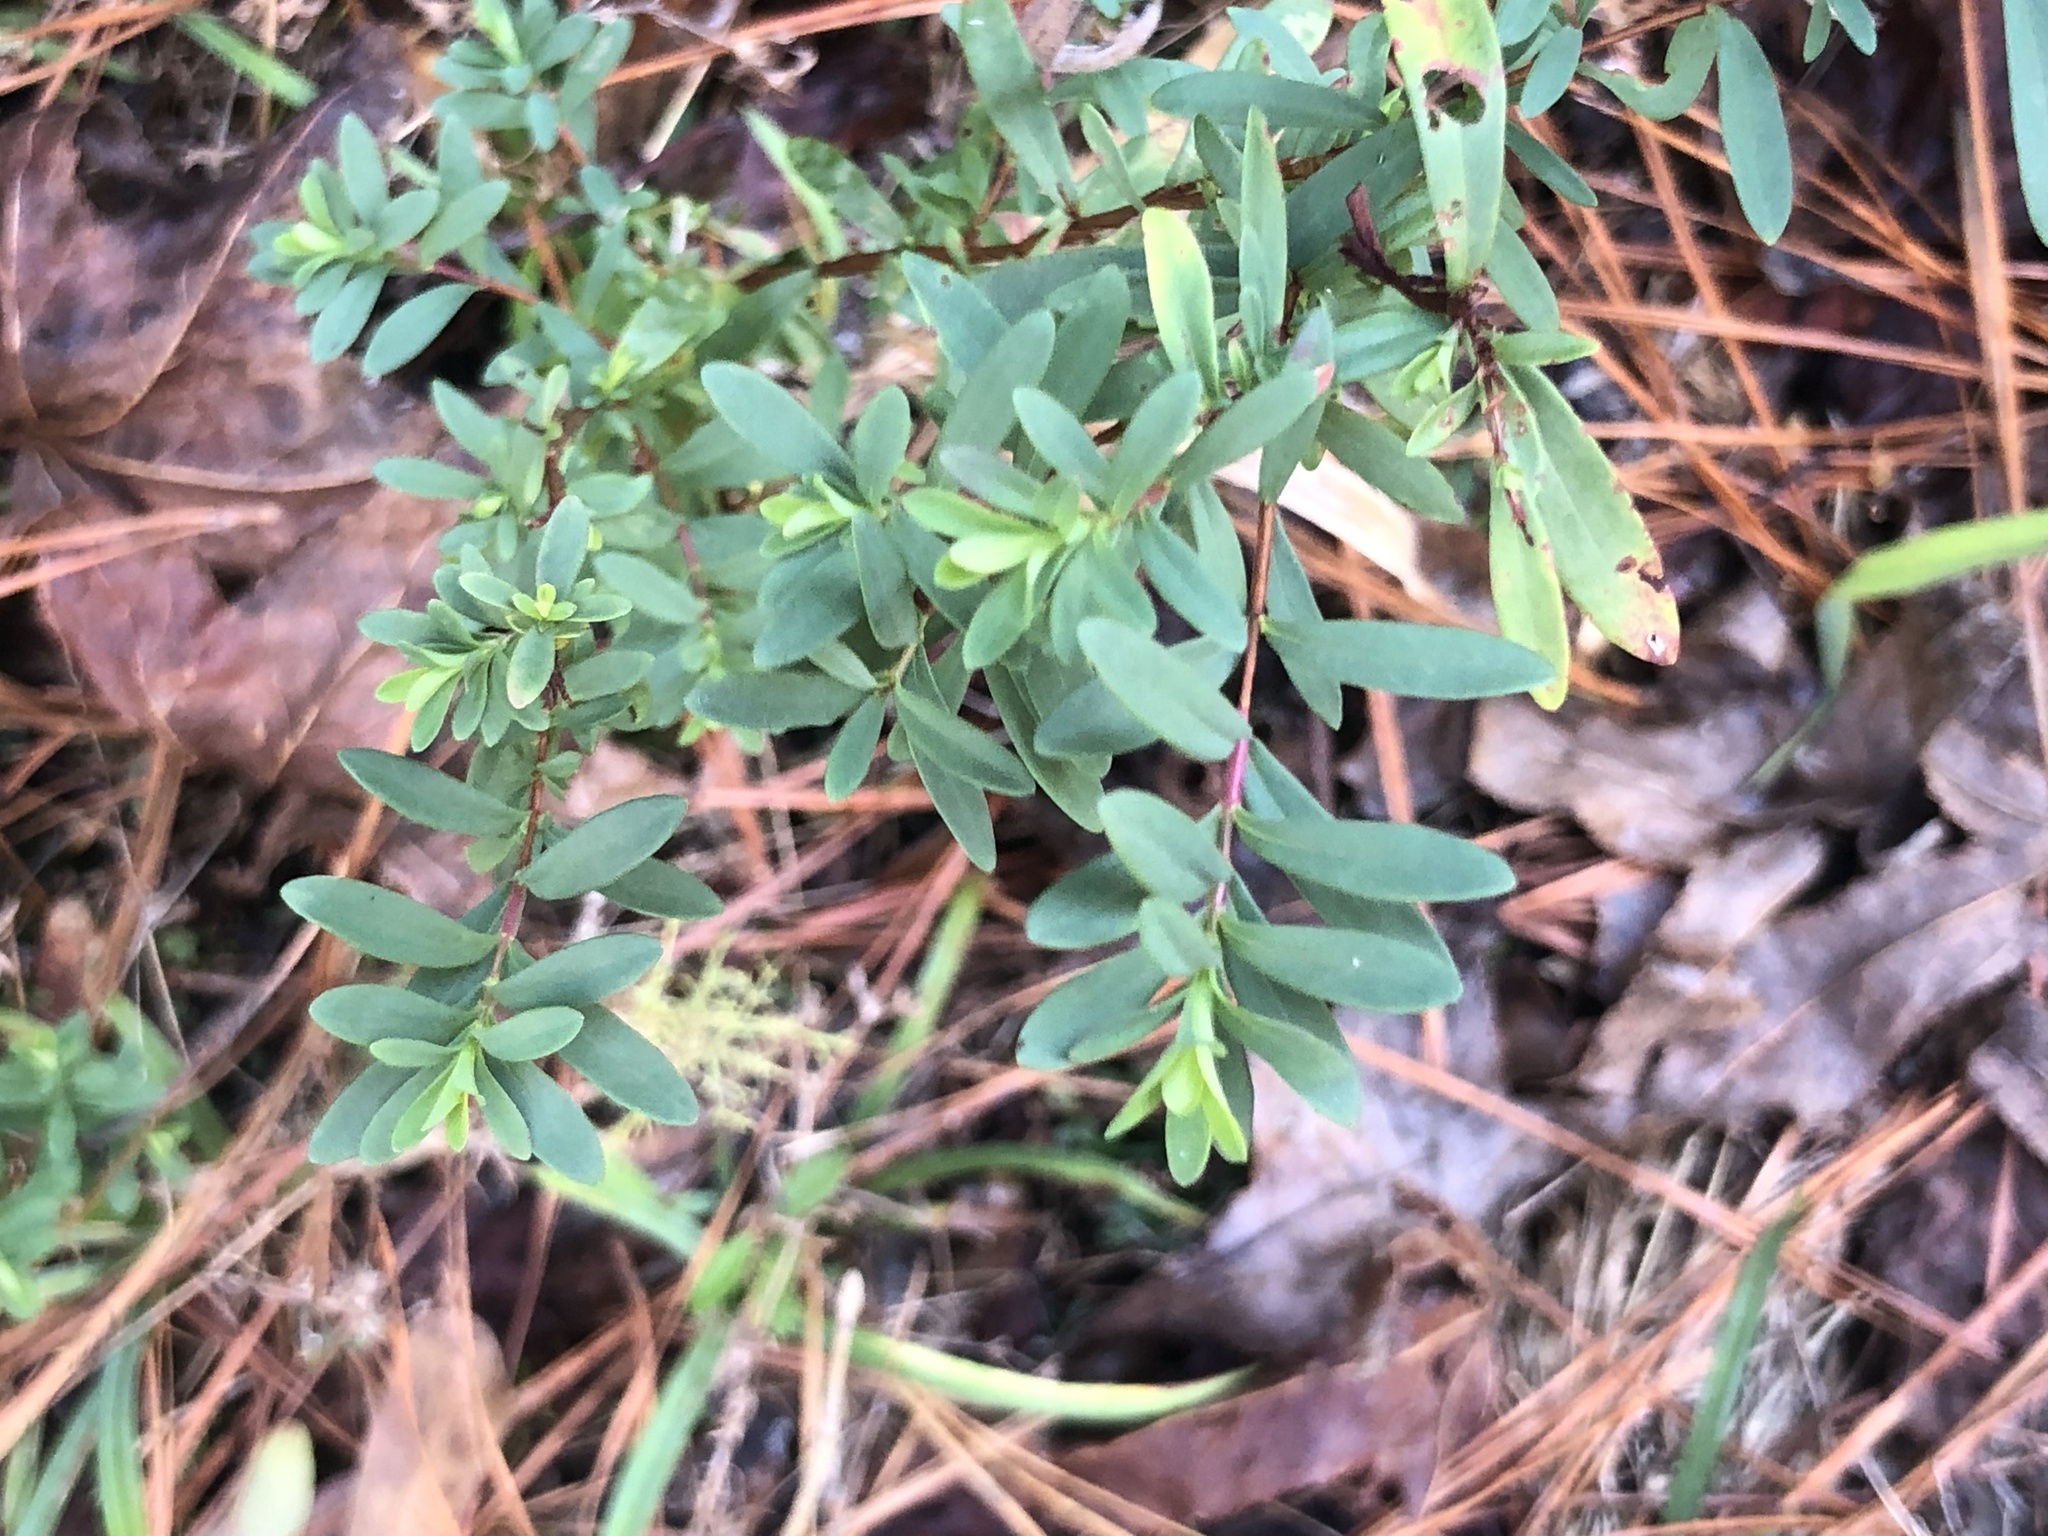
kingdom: Plantae
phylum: Tracheophyta
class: Magnoliopsida
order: Malpighiales
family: Hypericaceae
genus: Hypericum
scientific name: Hypericum hypericoides
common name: St. andrew's cross
